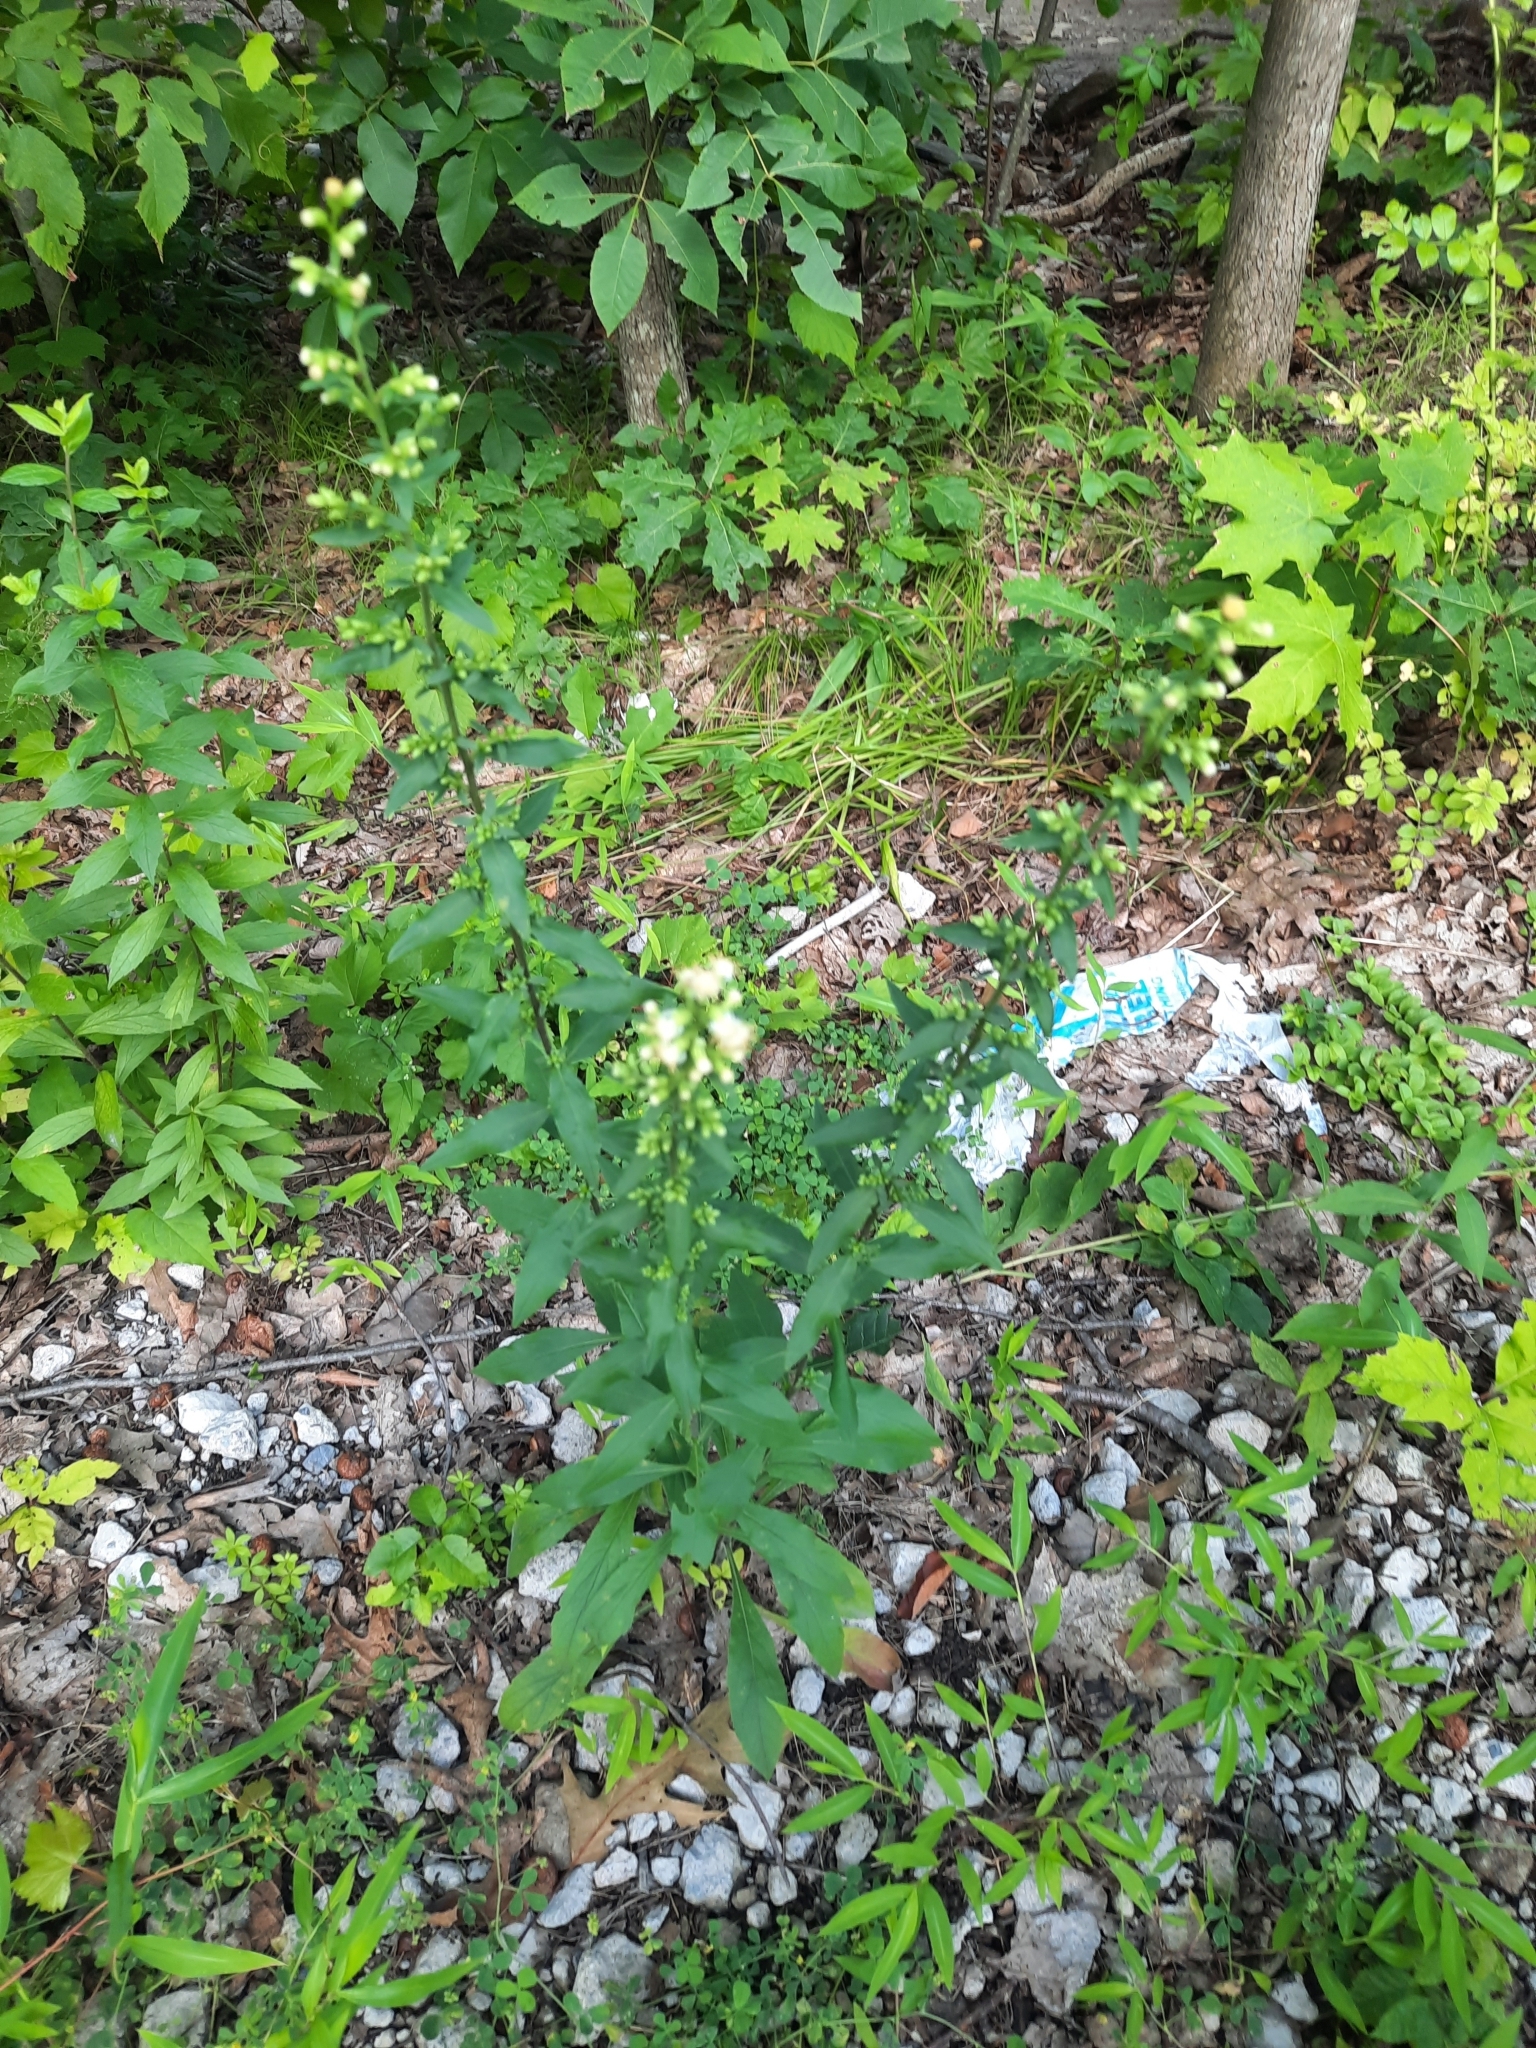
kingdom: Plantae
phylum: Tracheophyta
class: Magnoliopsida
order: Asterales
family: Asteraceae
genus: Solidago
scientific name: Solidago bicolor
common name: Silverrod
